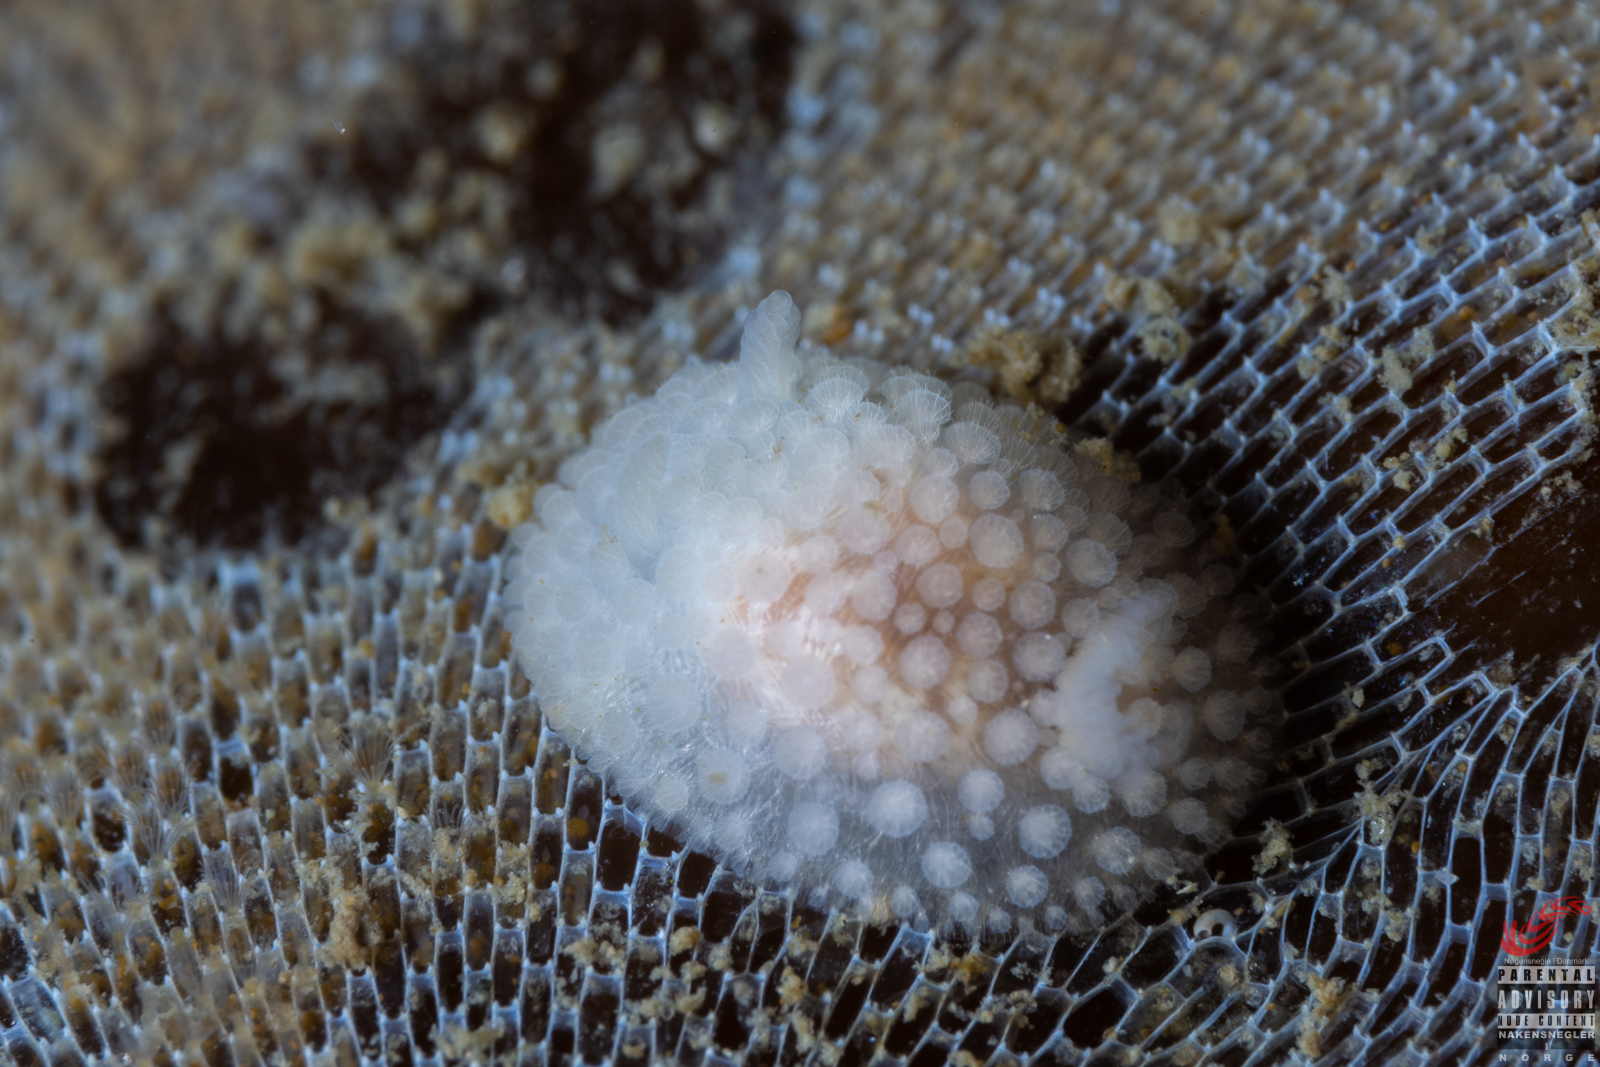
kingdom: Animalia
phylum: Mollusca
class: Gastropoda
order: Nudibranchia
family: Onchidorididae
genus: Onchidoris
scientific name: Onchidoris muricata
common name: Rough doris
